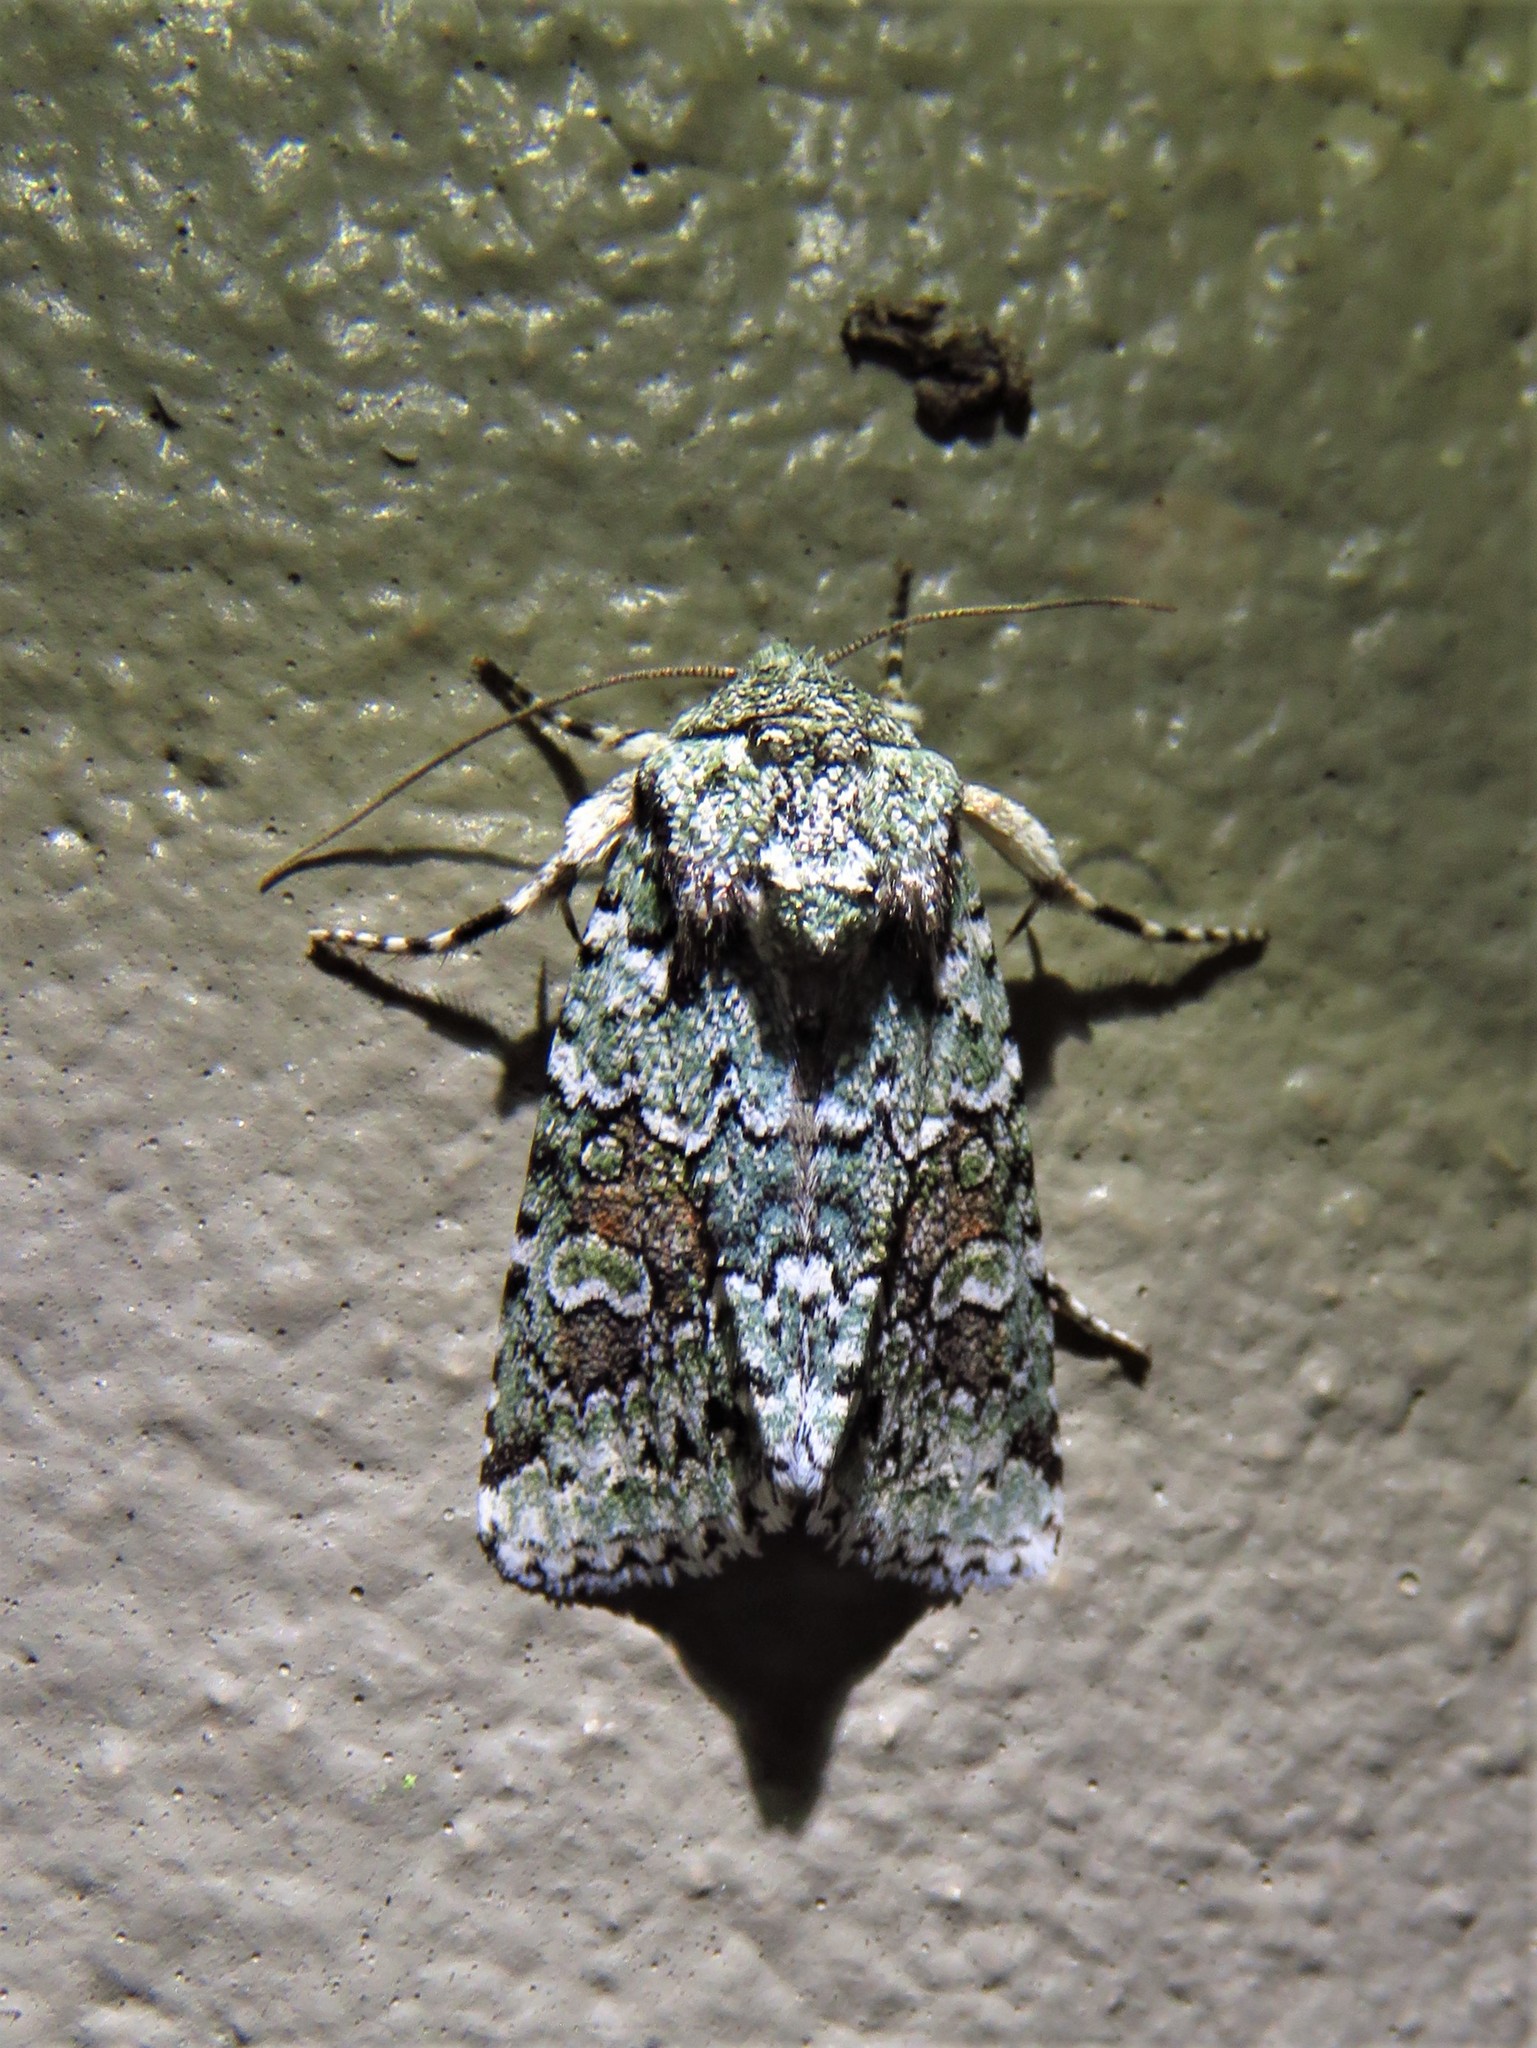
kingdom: Animalia
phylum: Arthropoda
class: Insecta
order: Lepidoptera
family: Noctuidae
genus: Lacinipolia
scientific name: Lacinipolia laudabilis
